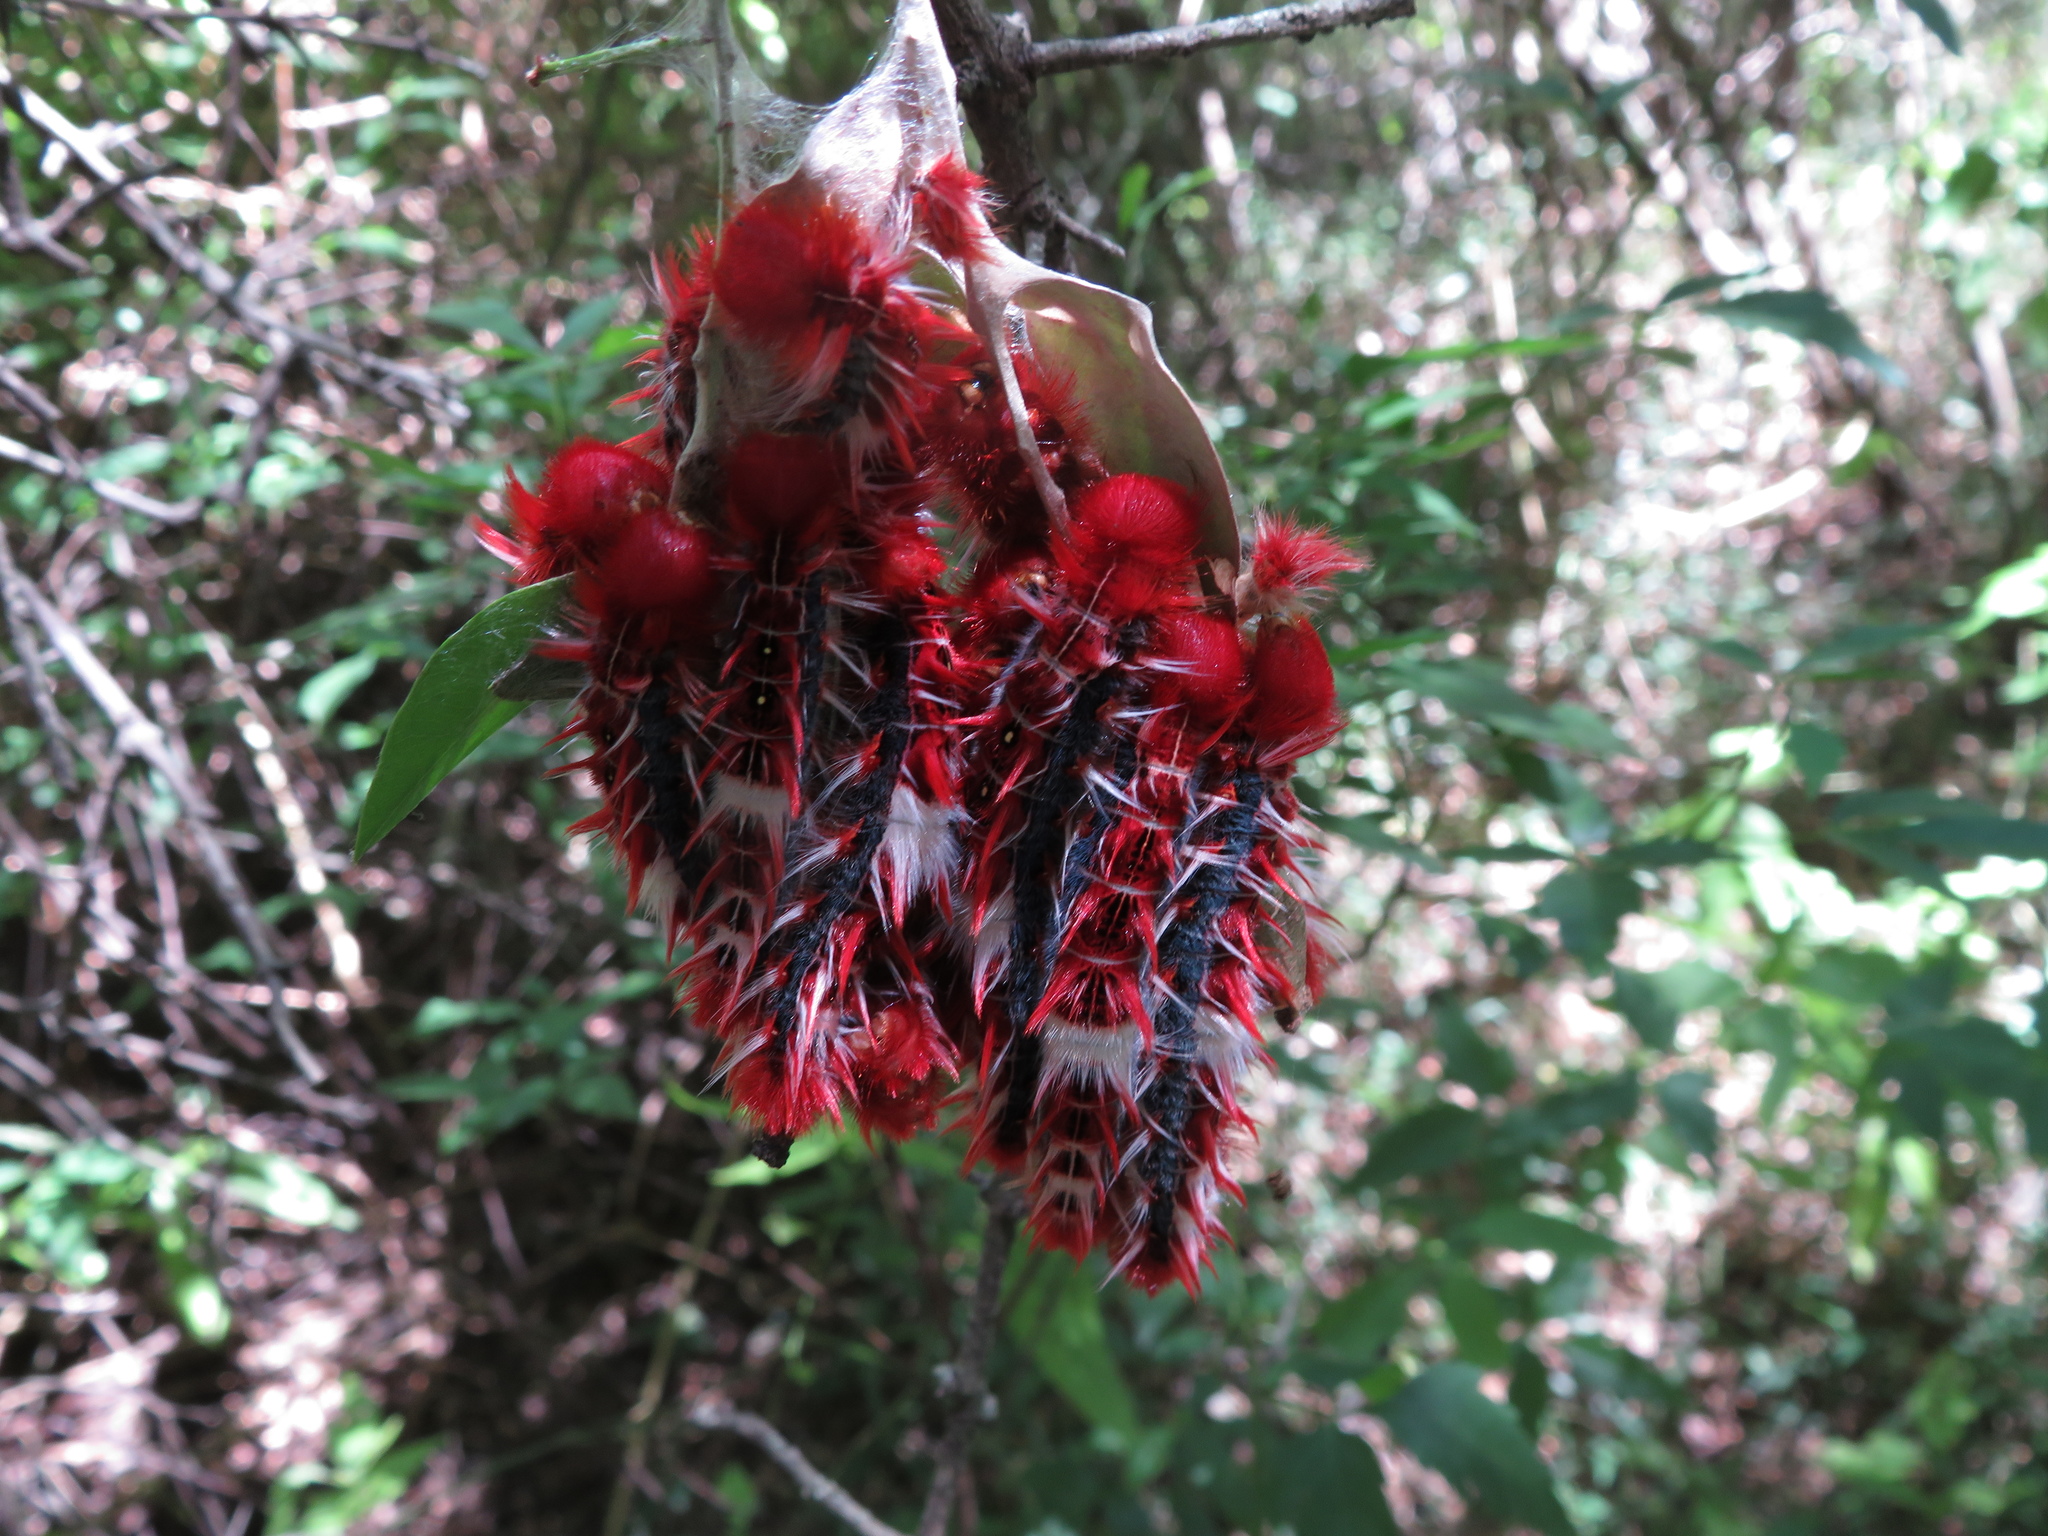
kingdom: Animalia
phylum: Arthropoda
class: Insecta
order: Lepidoptera
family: Nymphalidae
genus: Morpho
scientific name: Morpho epistrophus
